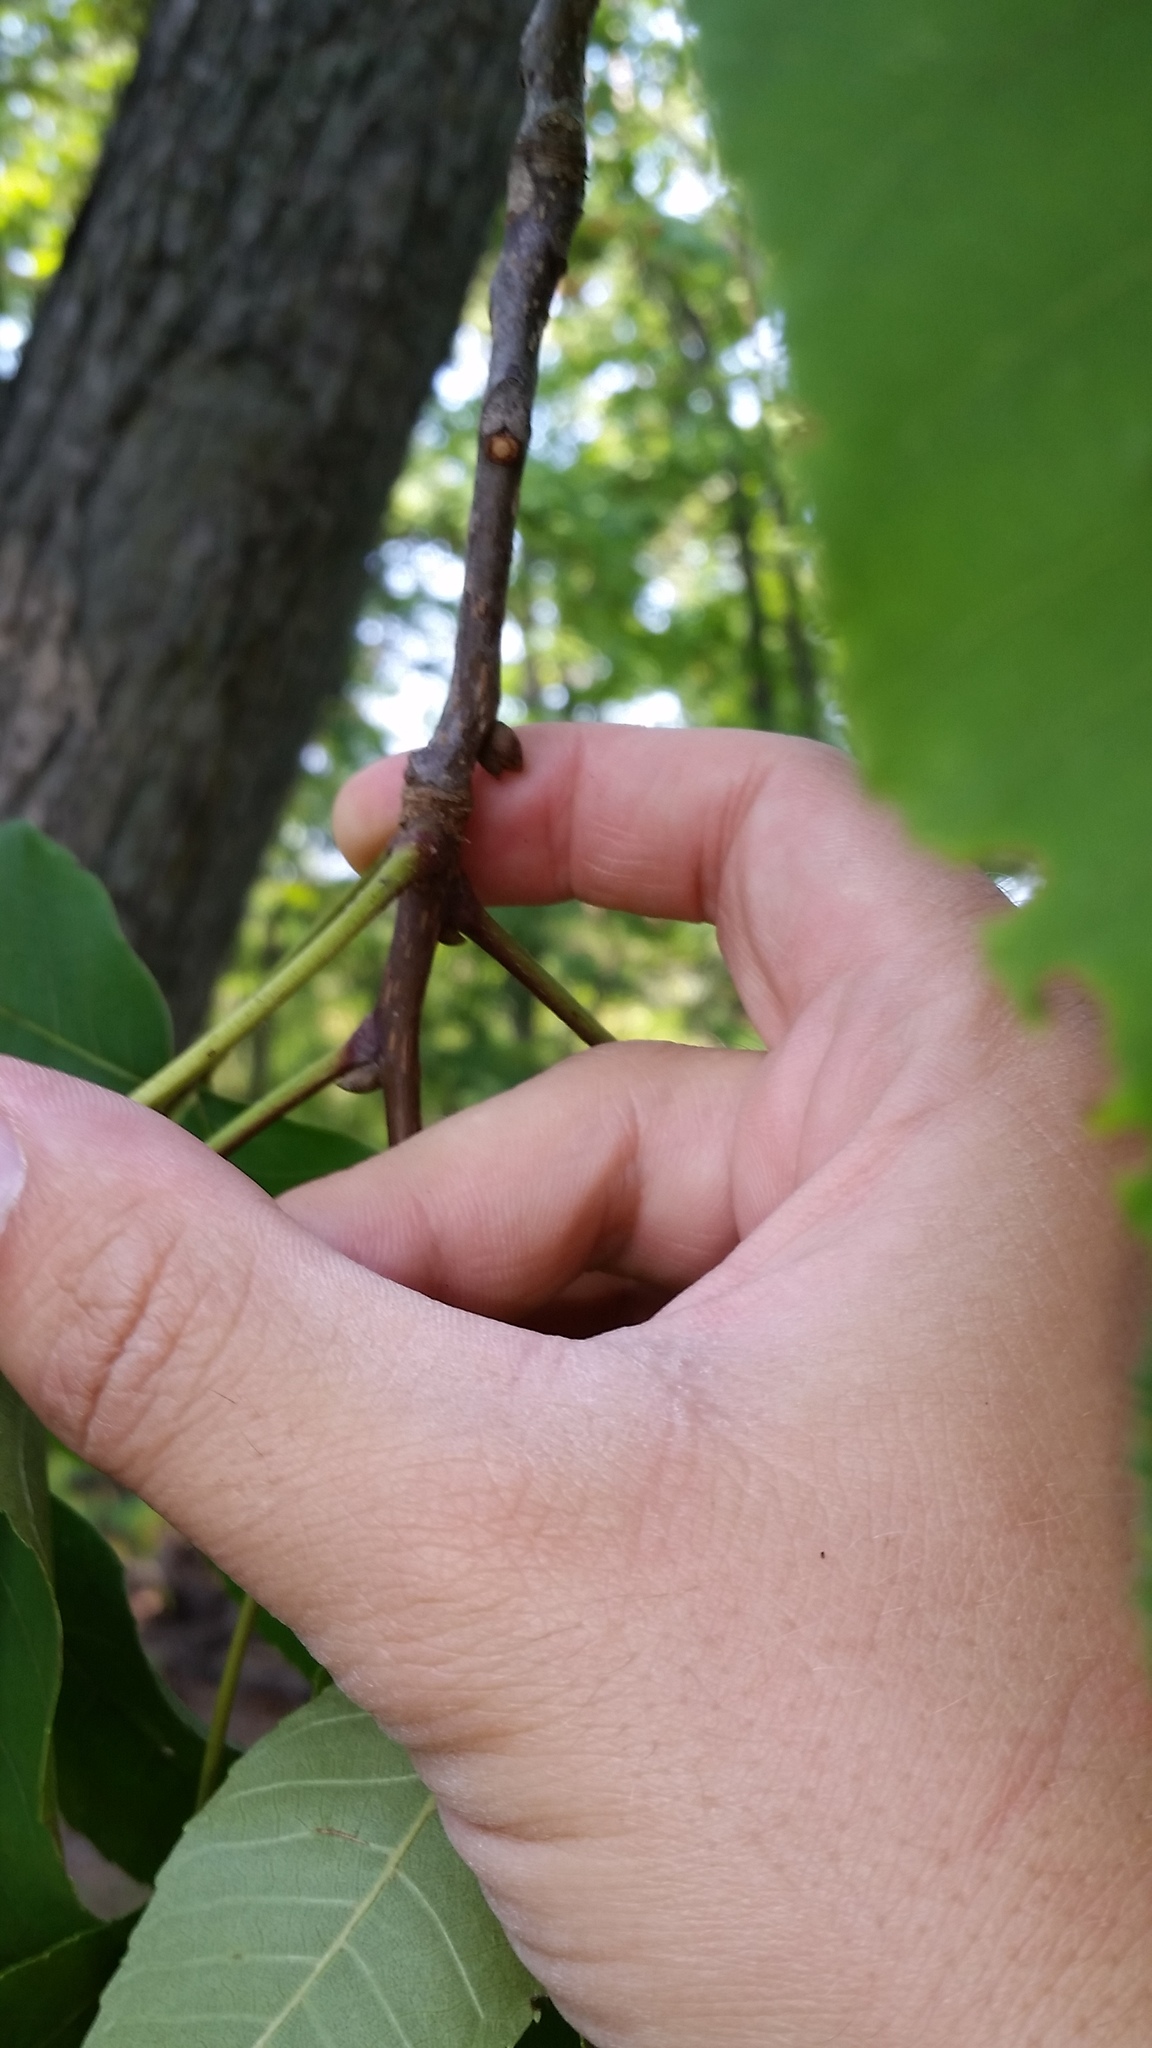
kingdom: Plantae
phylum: Tracheophyta
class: Magnoliopsida
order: Fagales
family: Juglandaceae
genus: Carya
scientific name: Carya glabra
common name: Pignut hickory
